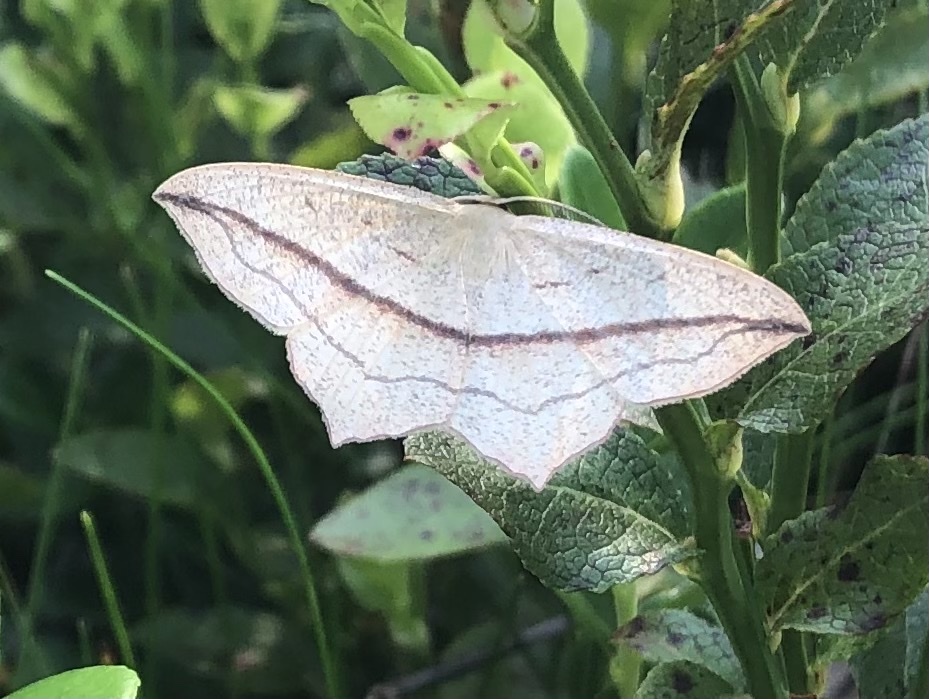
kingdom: Animalia
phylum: Arthropoda
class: Insecta
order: Lepidoptera
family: Geometridae
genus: Timandra
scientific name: Timandra comae
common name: Blood-vein
